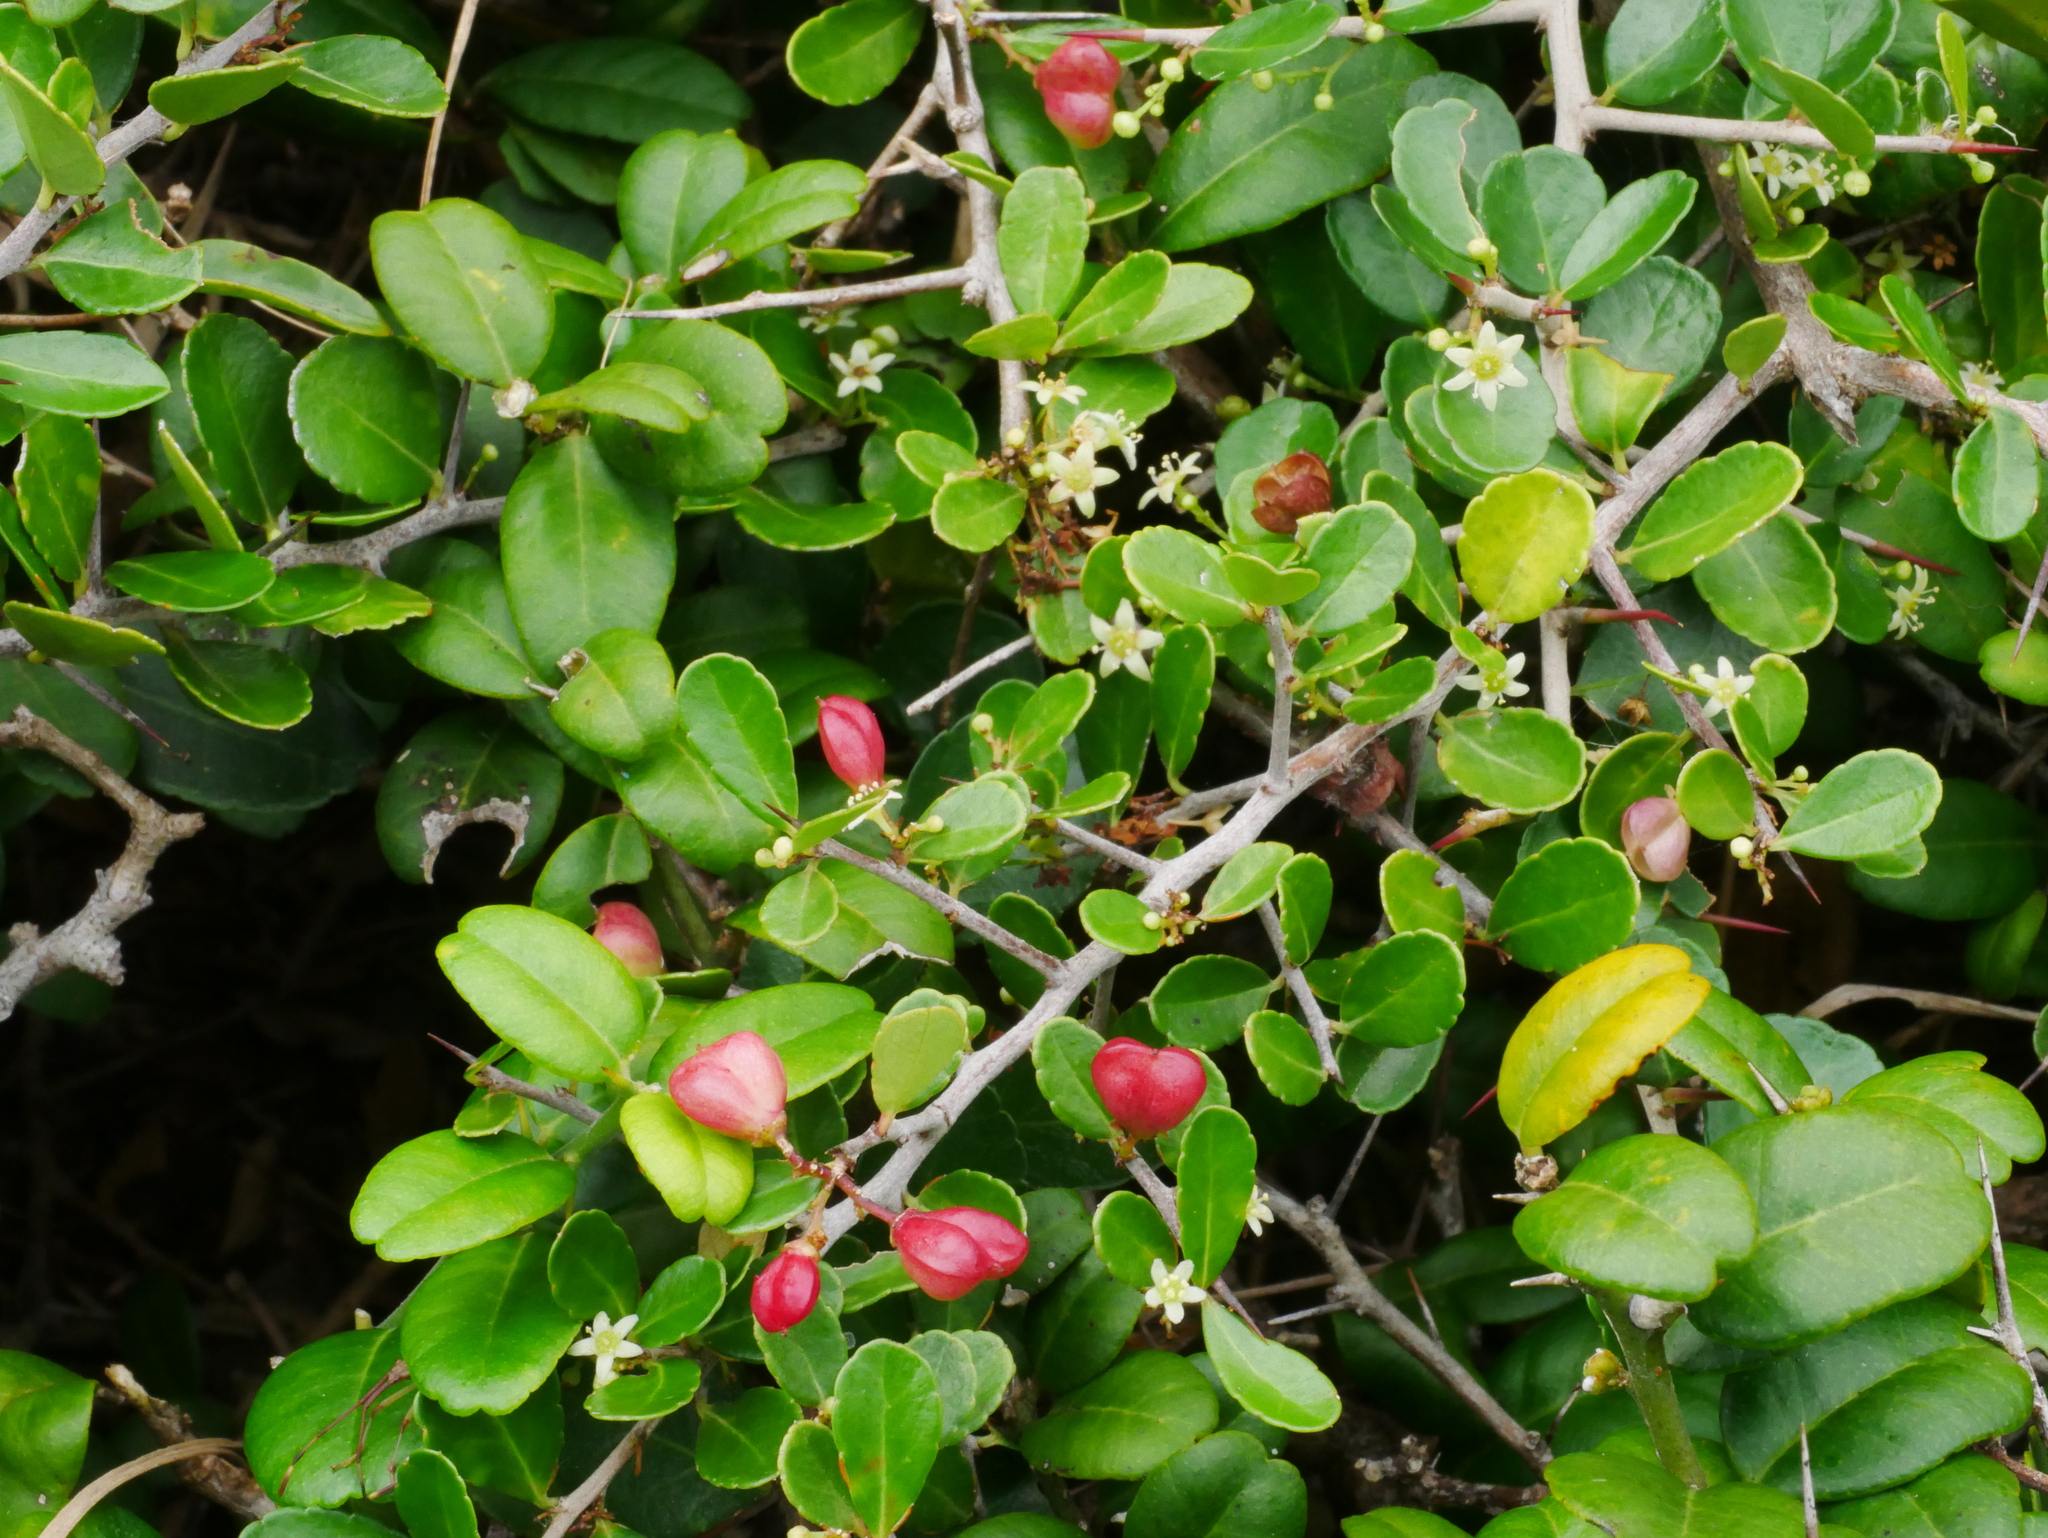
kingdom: Plantae
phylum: Tracheophyta
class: Magnoliopsida
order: Celastrales
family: Celastraceae
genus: Gymnosporia
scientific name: Gymnosporia diversifolia
